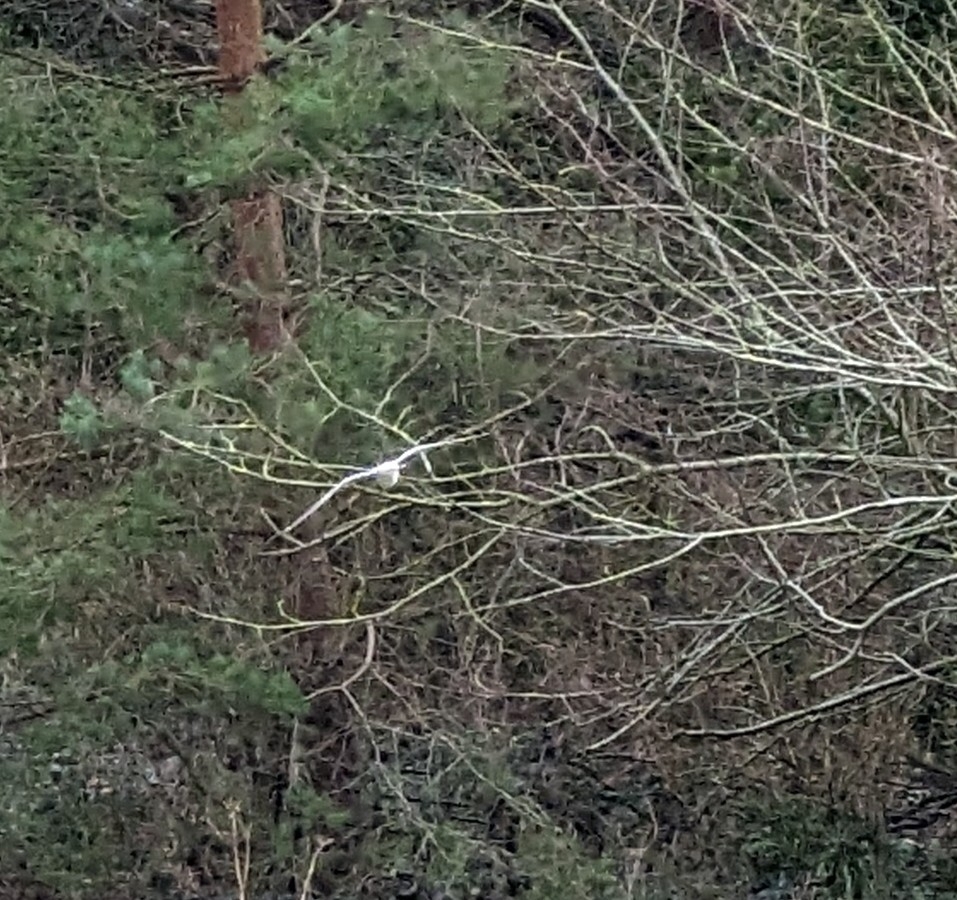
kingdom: Animalia
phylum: Chordata
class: Aves
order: Charadriiformes
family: Laridae
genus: Chroicocephalus
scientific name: Chroicocephalus ridibundus
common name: Black-headed gull
